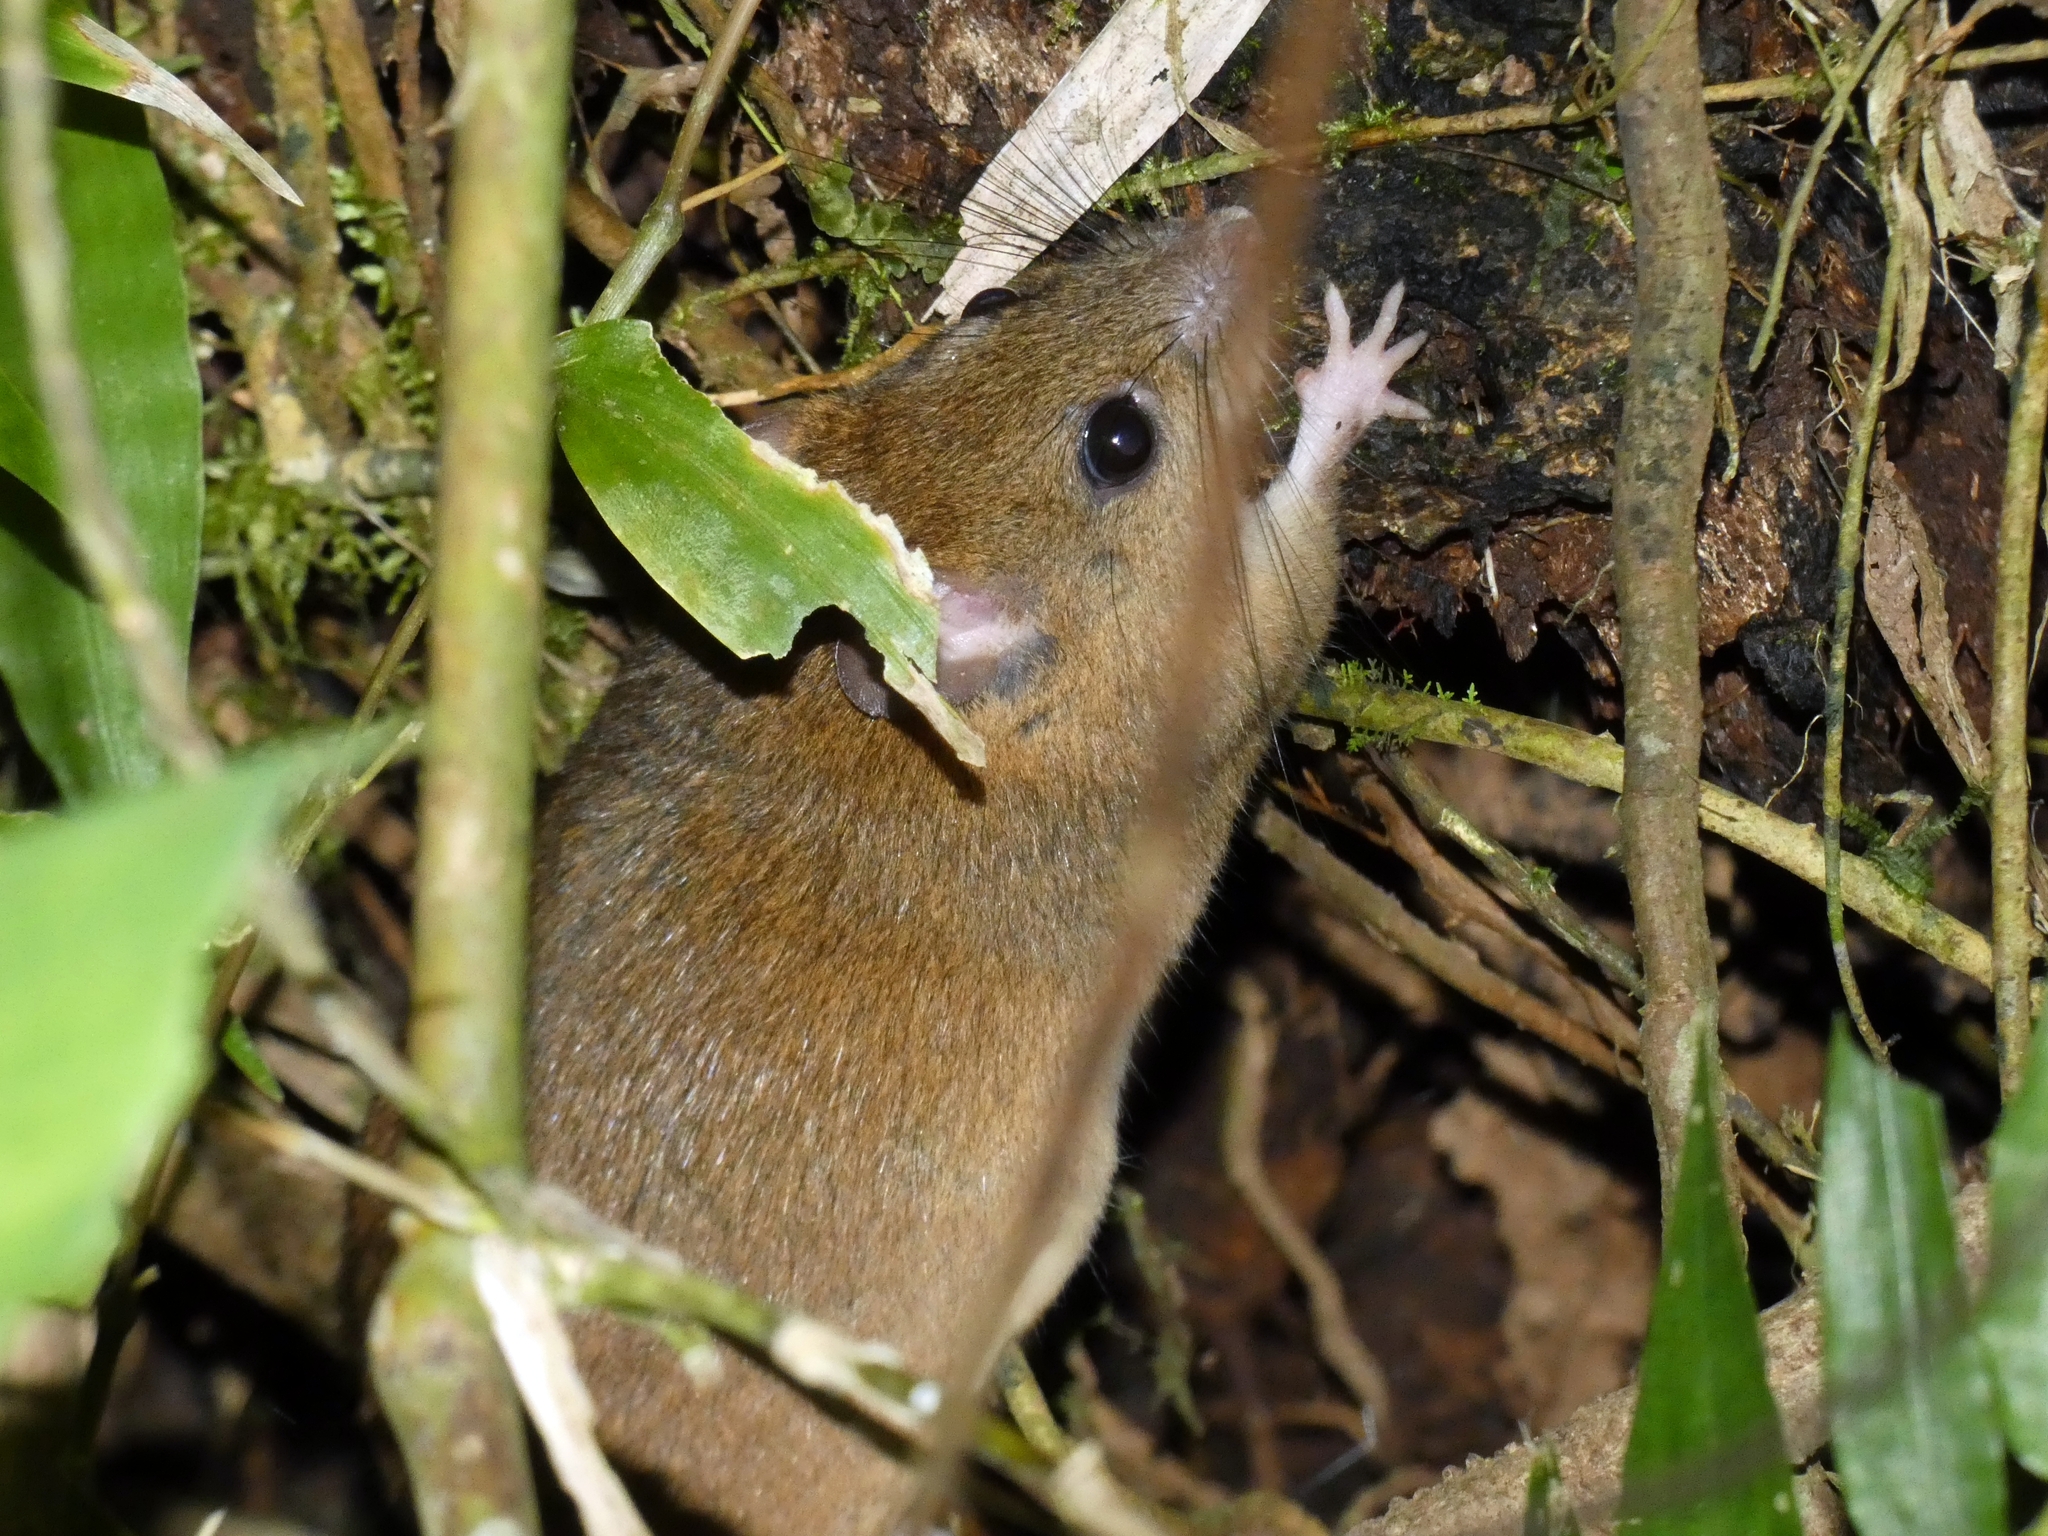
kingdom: Animalia
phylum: Chordata
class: Mammalia
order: Rodentia
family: Muridae
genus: Melomys
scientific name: Melomys cervinipes
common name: Fawn-footed melomys
